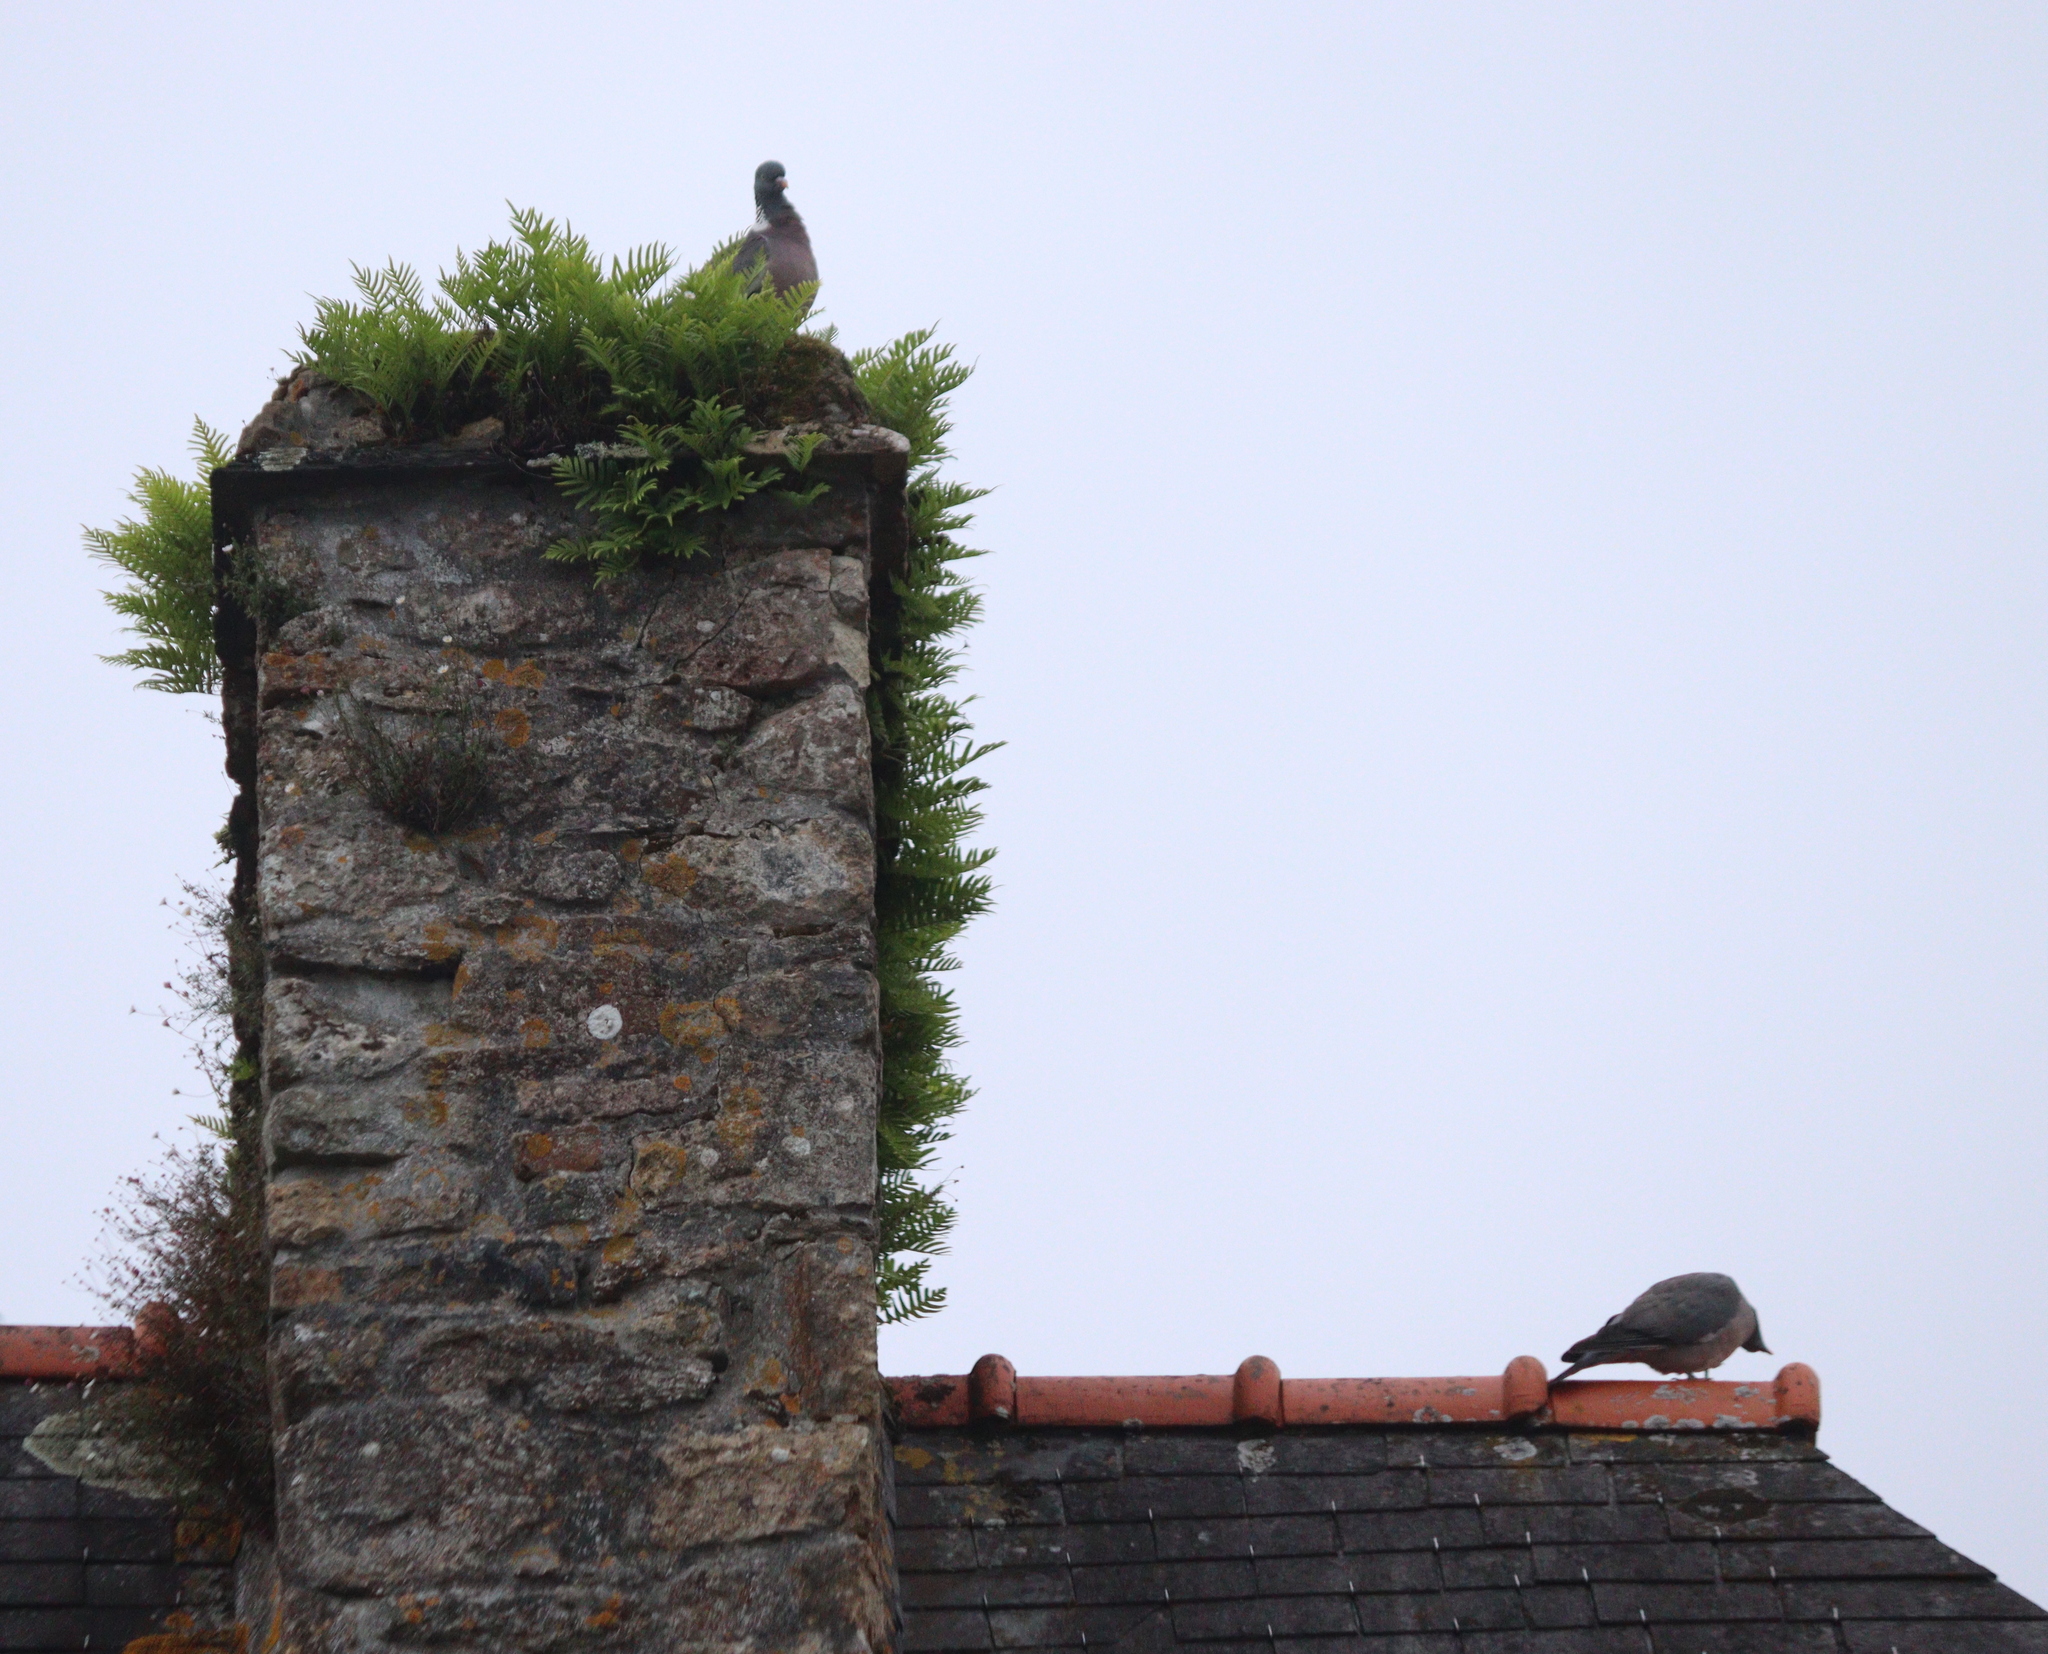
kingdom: Animalia
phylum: Chordata
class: Aves
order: Columbiformes
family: Columbidae
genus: Columba
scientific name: Columba palumbus
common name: Common wood pigeon
